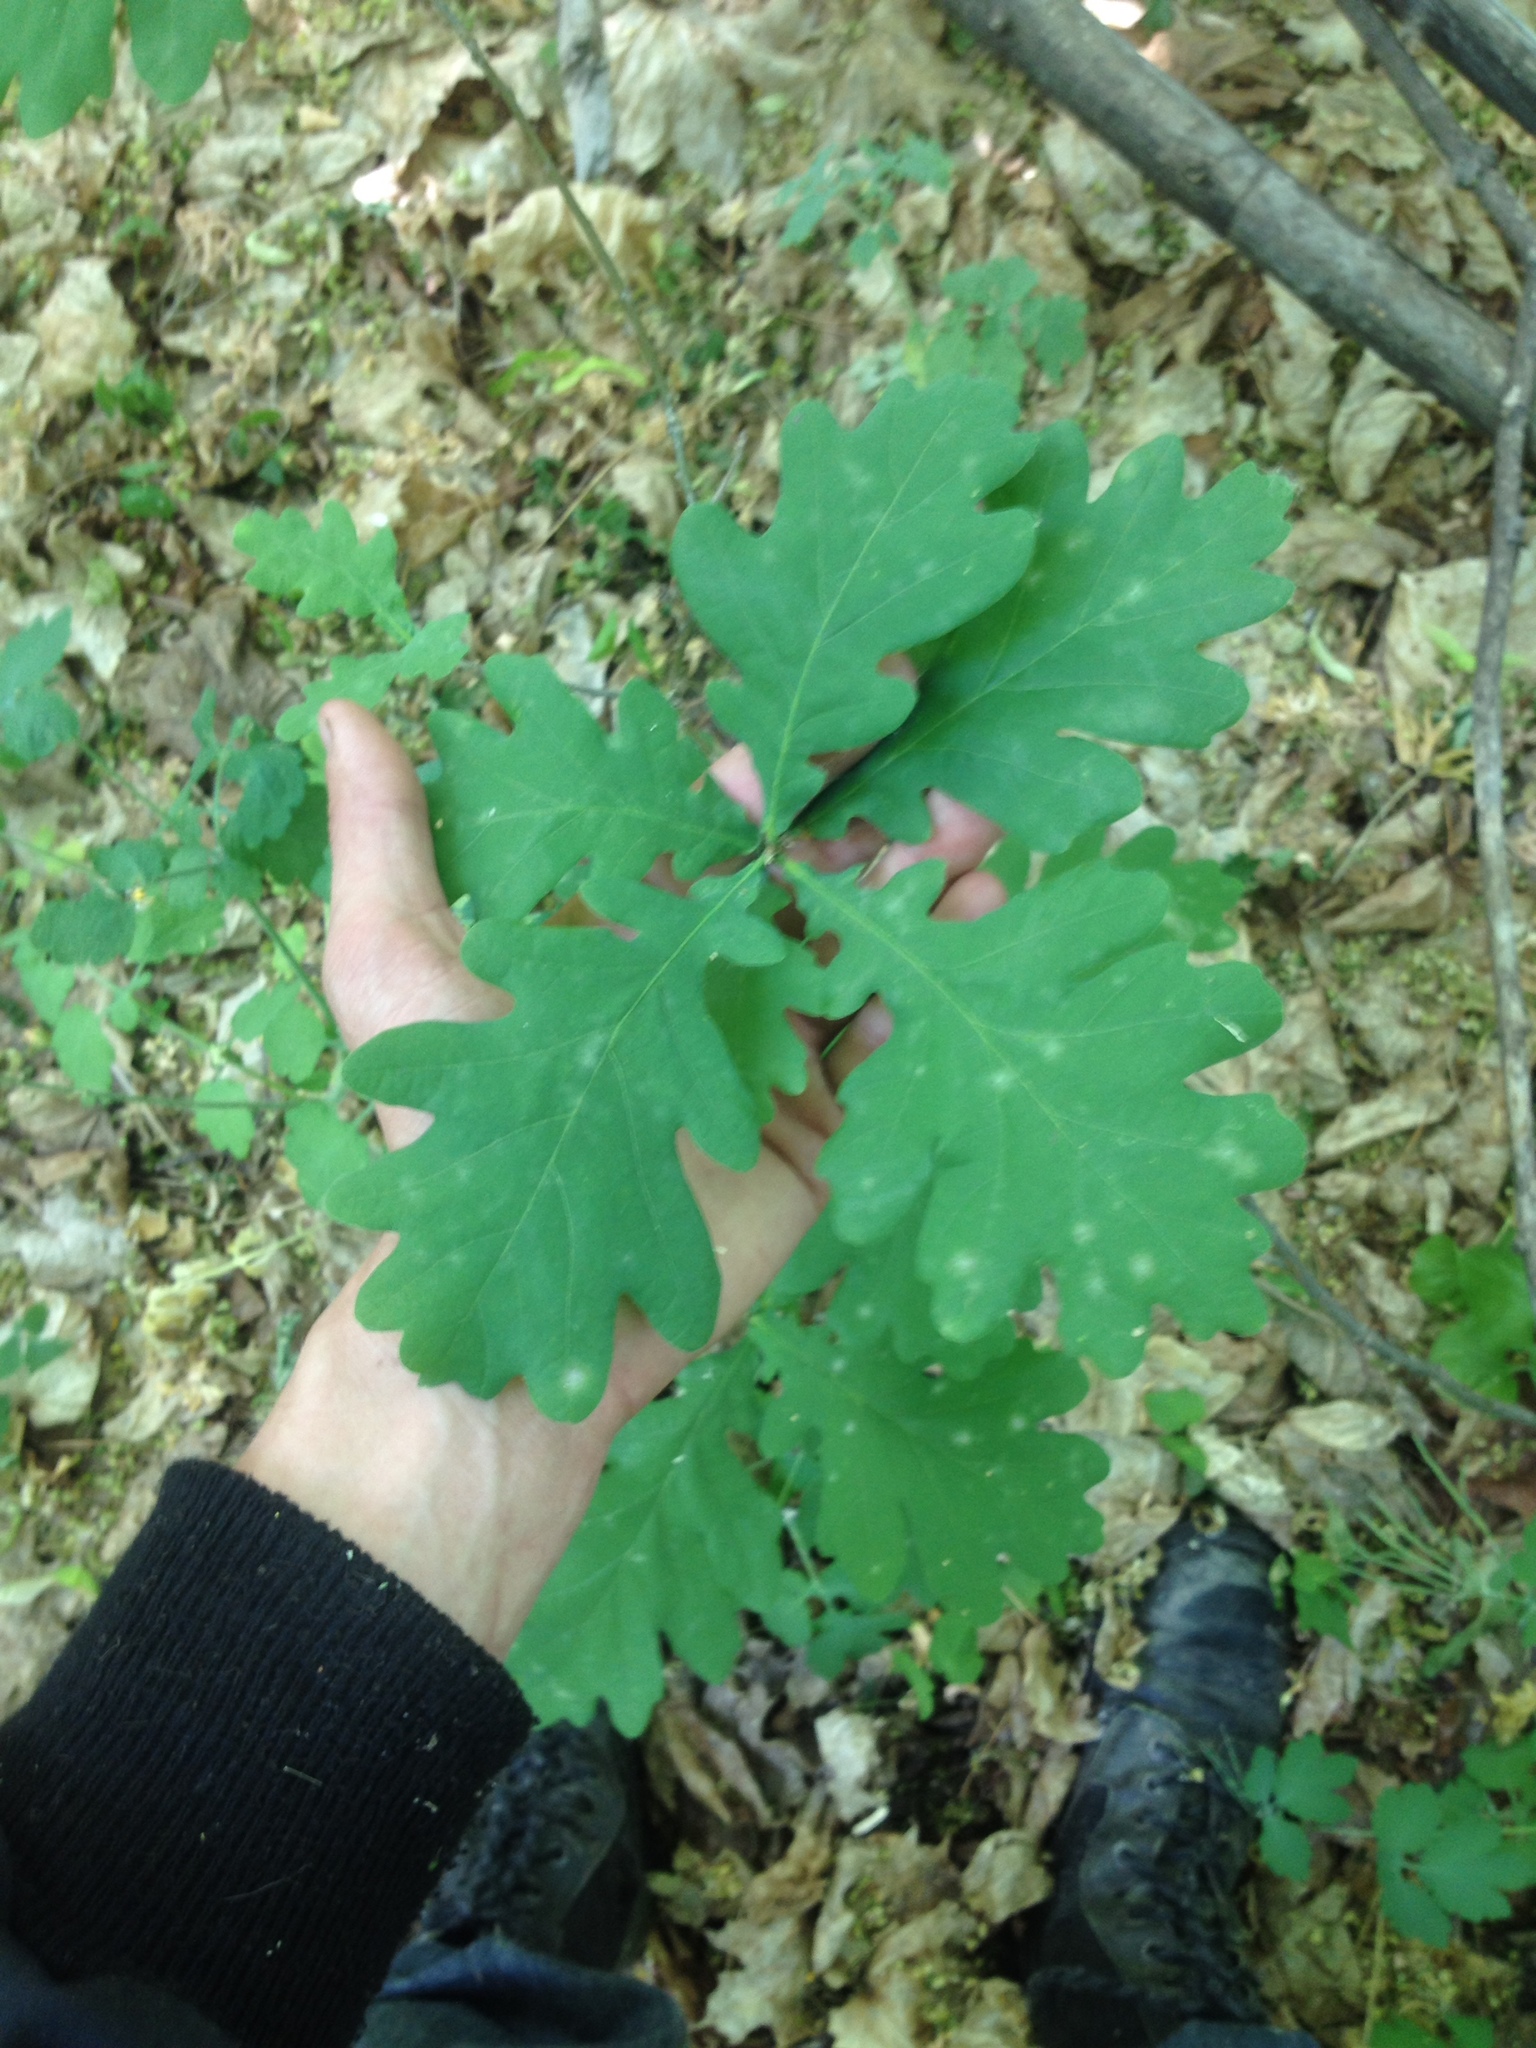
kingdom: Plantae
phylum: Tracheophyta
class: Magnoliopsida
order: Fagales
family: Fagaceae
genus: Quercus
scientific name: Quercus robur
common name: Pedunculate oak
